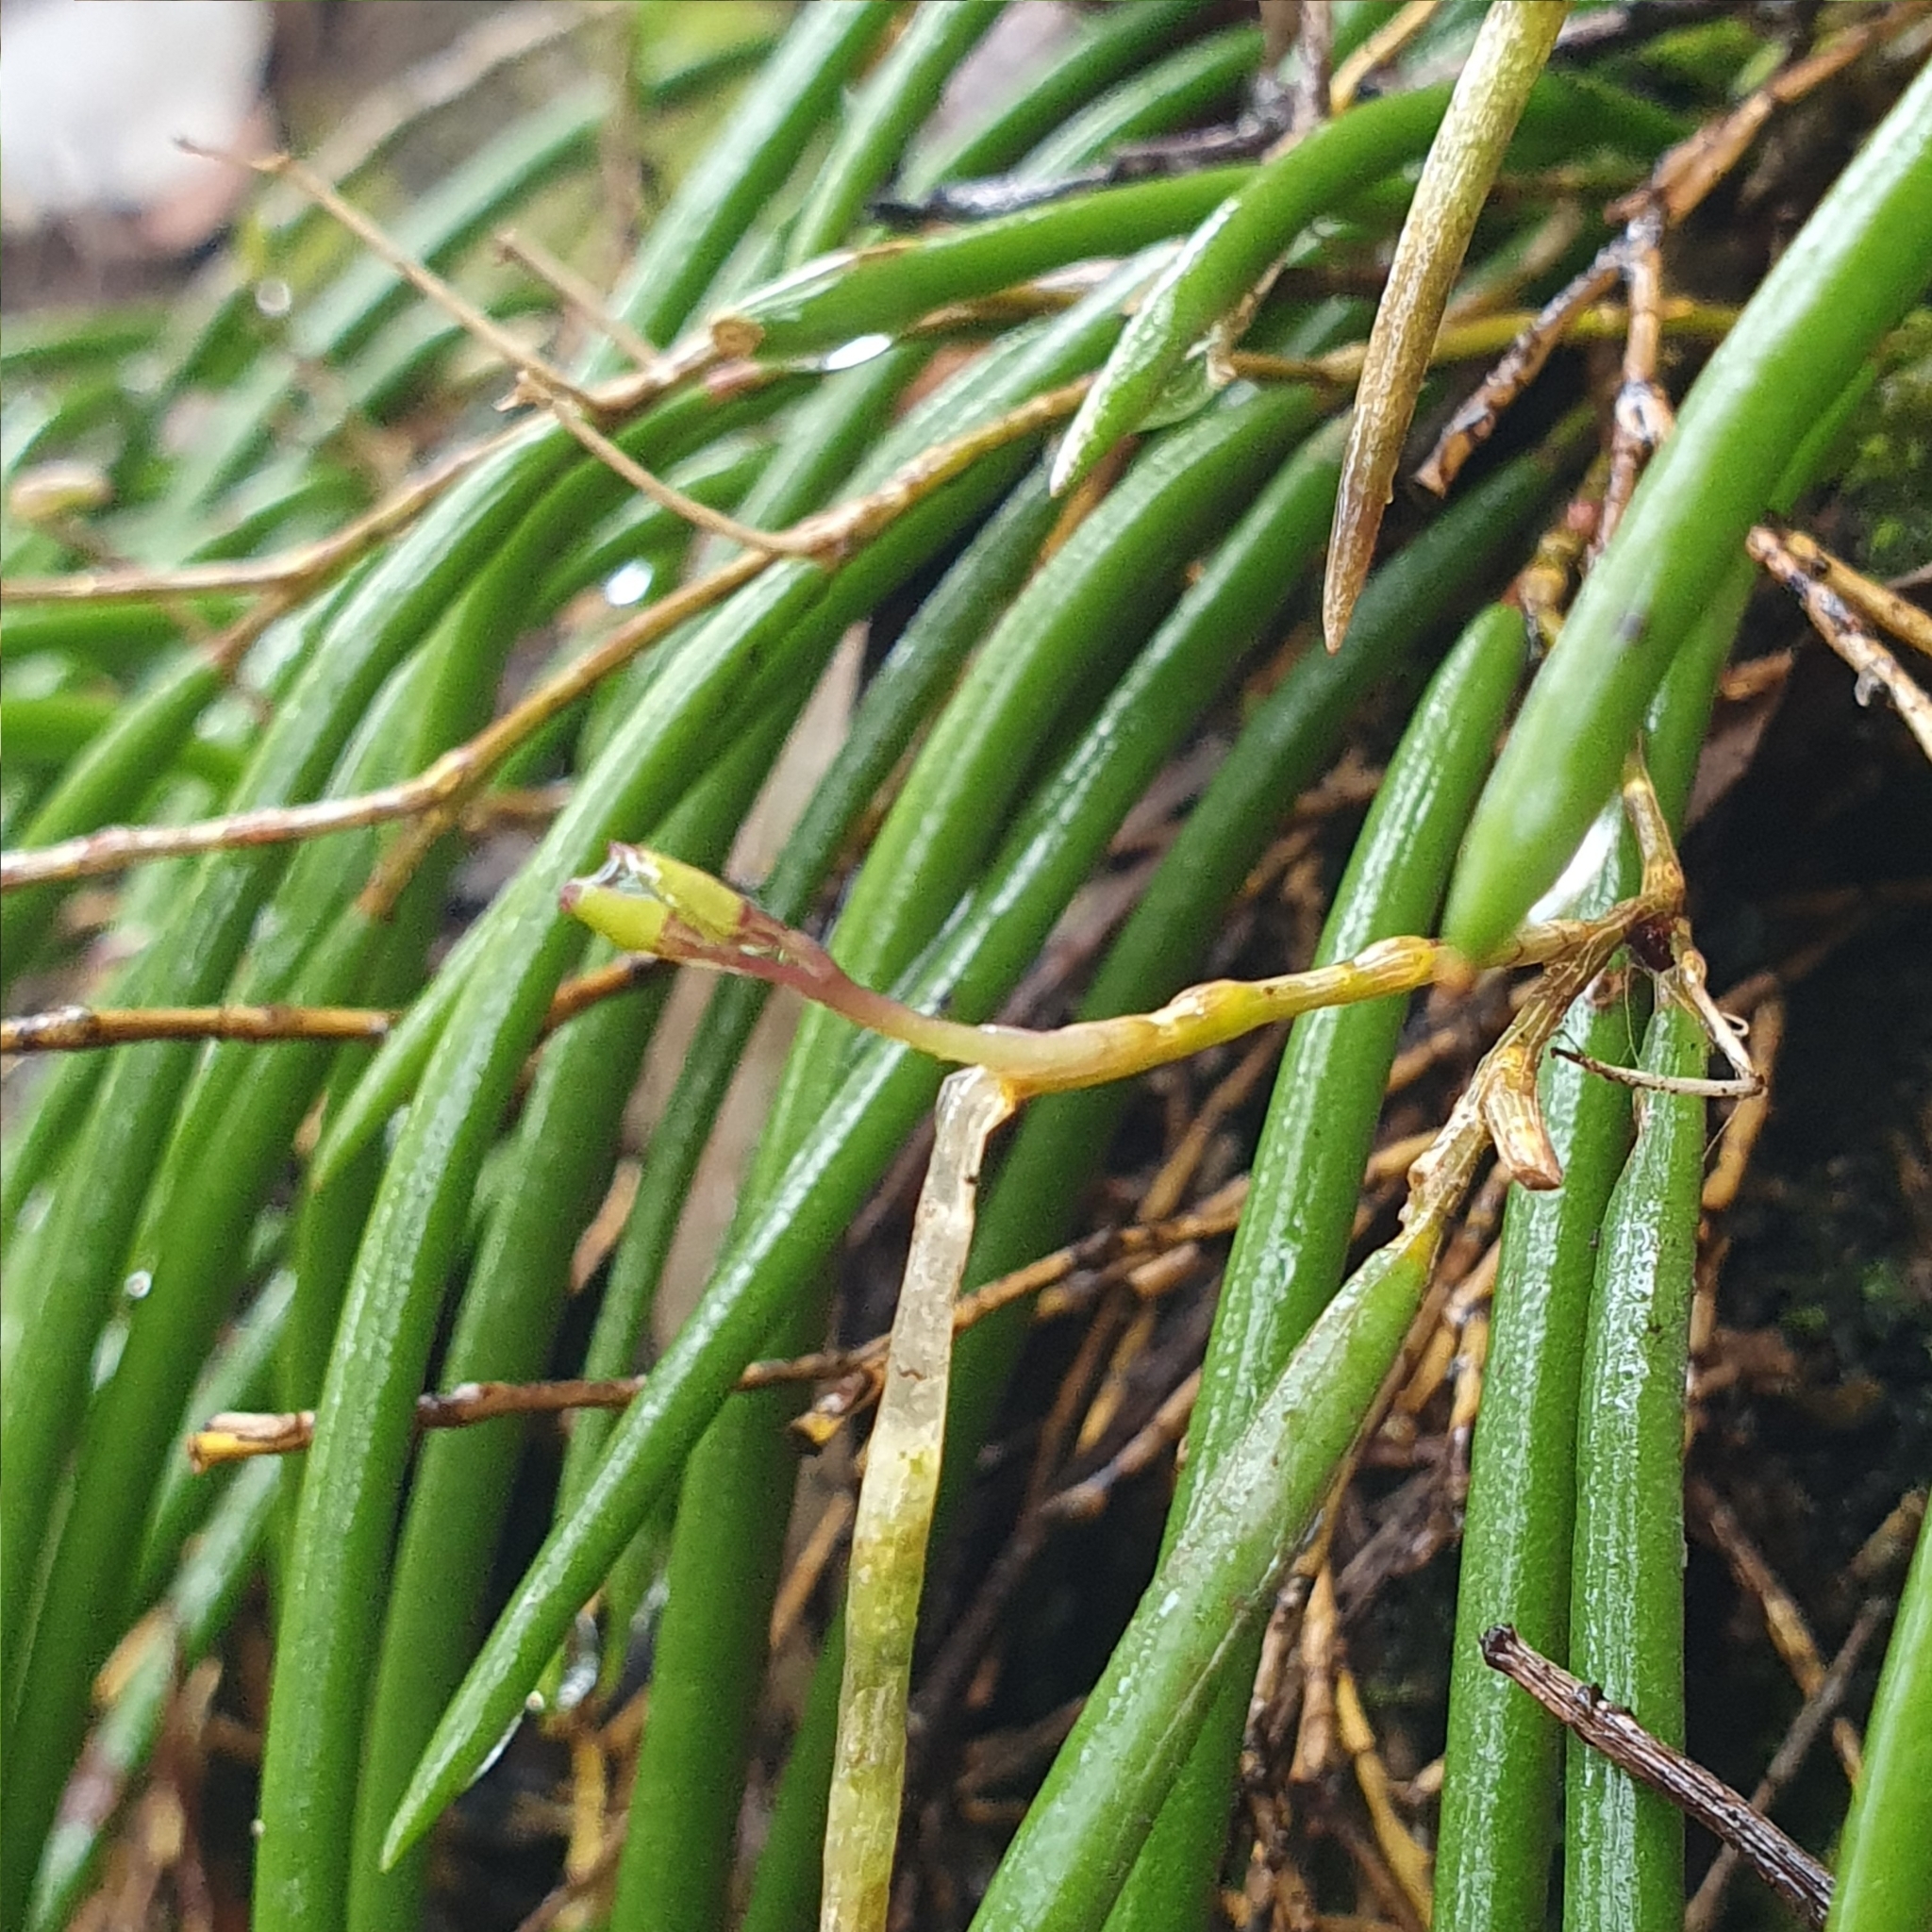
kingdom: Plantae
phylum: Tracheophyta
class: Liliopsida
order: Asparagales
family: Orchidaceae
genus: Dendrobium
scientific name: Dendrobium striolatum
